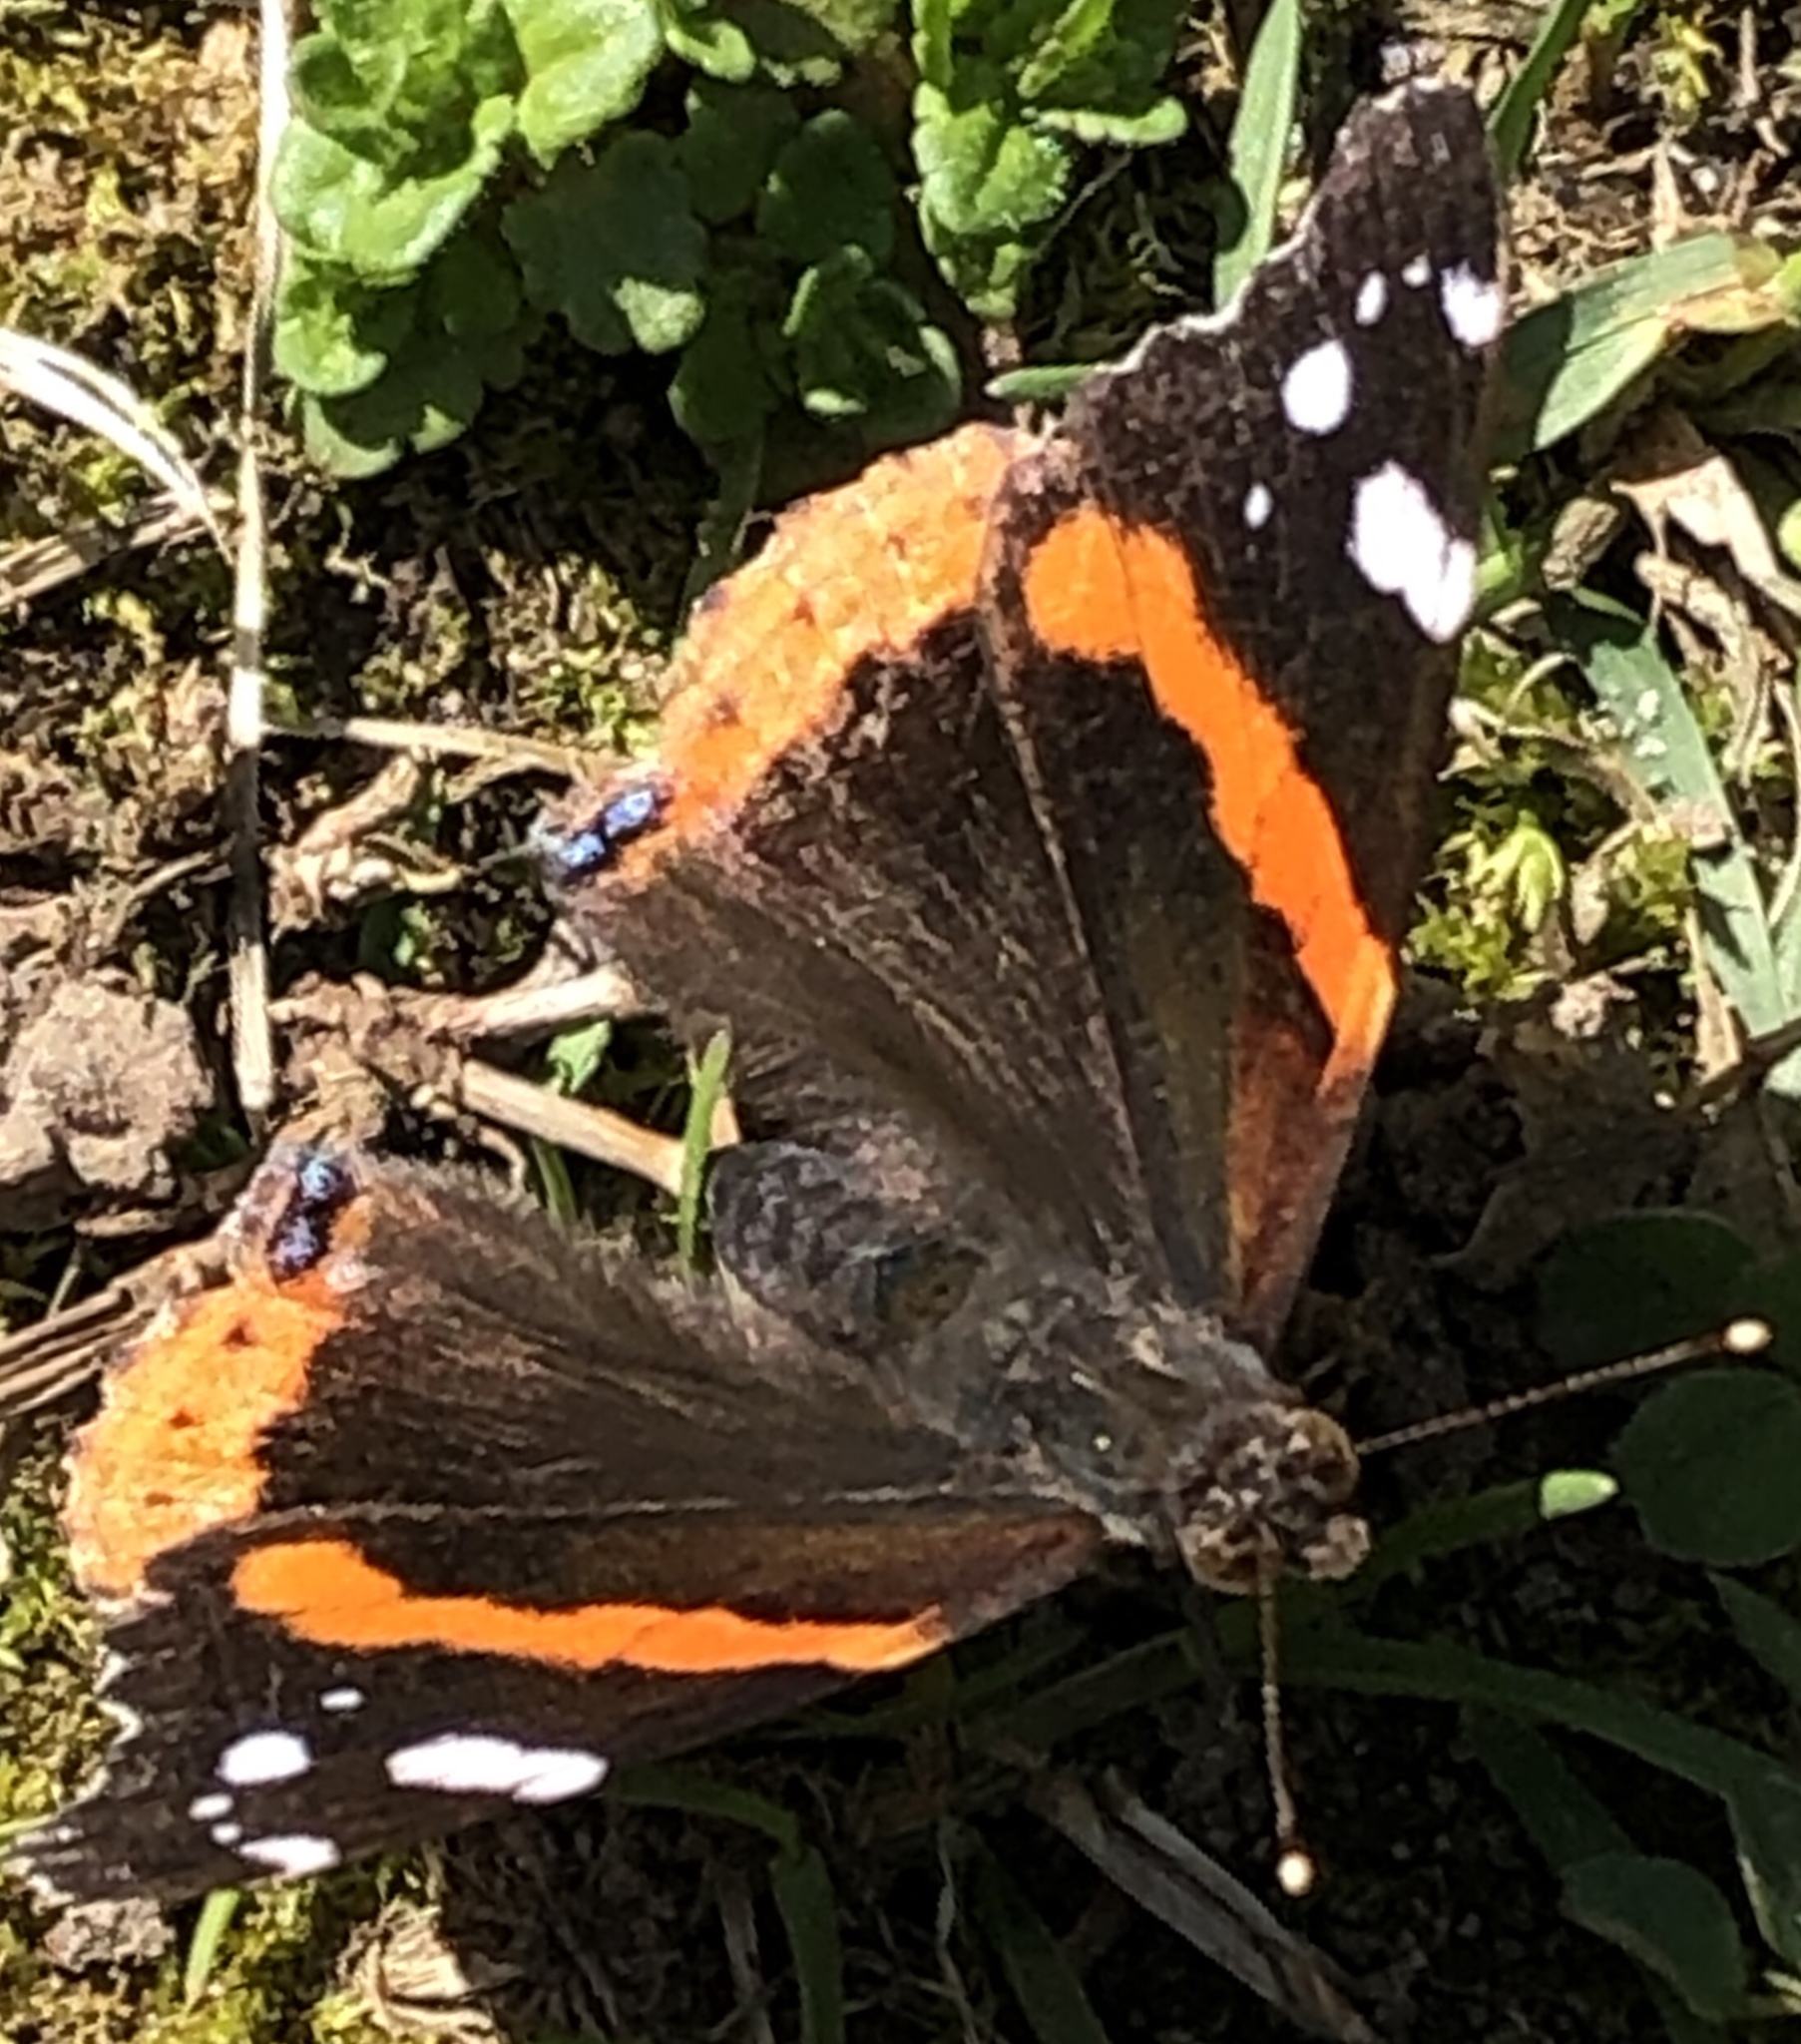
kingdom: Animalia
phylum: Arthropoda
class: Insecta
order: Lepidoptera
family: Nymphalidae
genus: Vanessa
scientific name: Vanessa atalanta
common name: Red admiral
